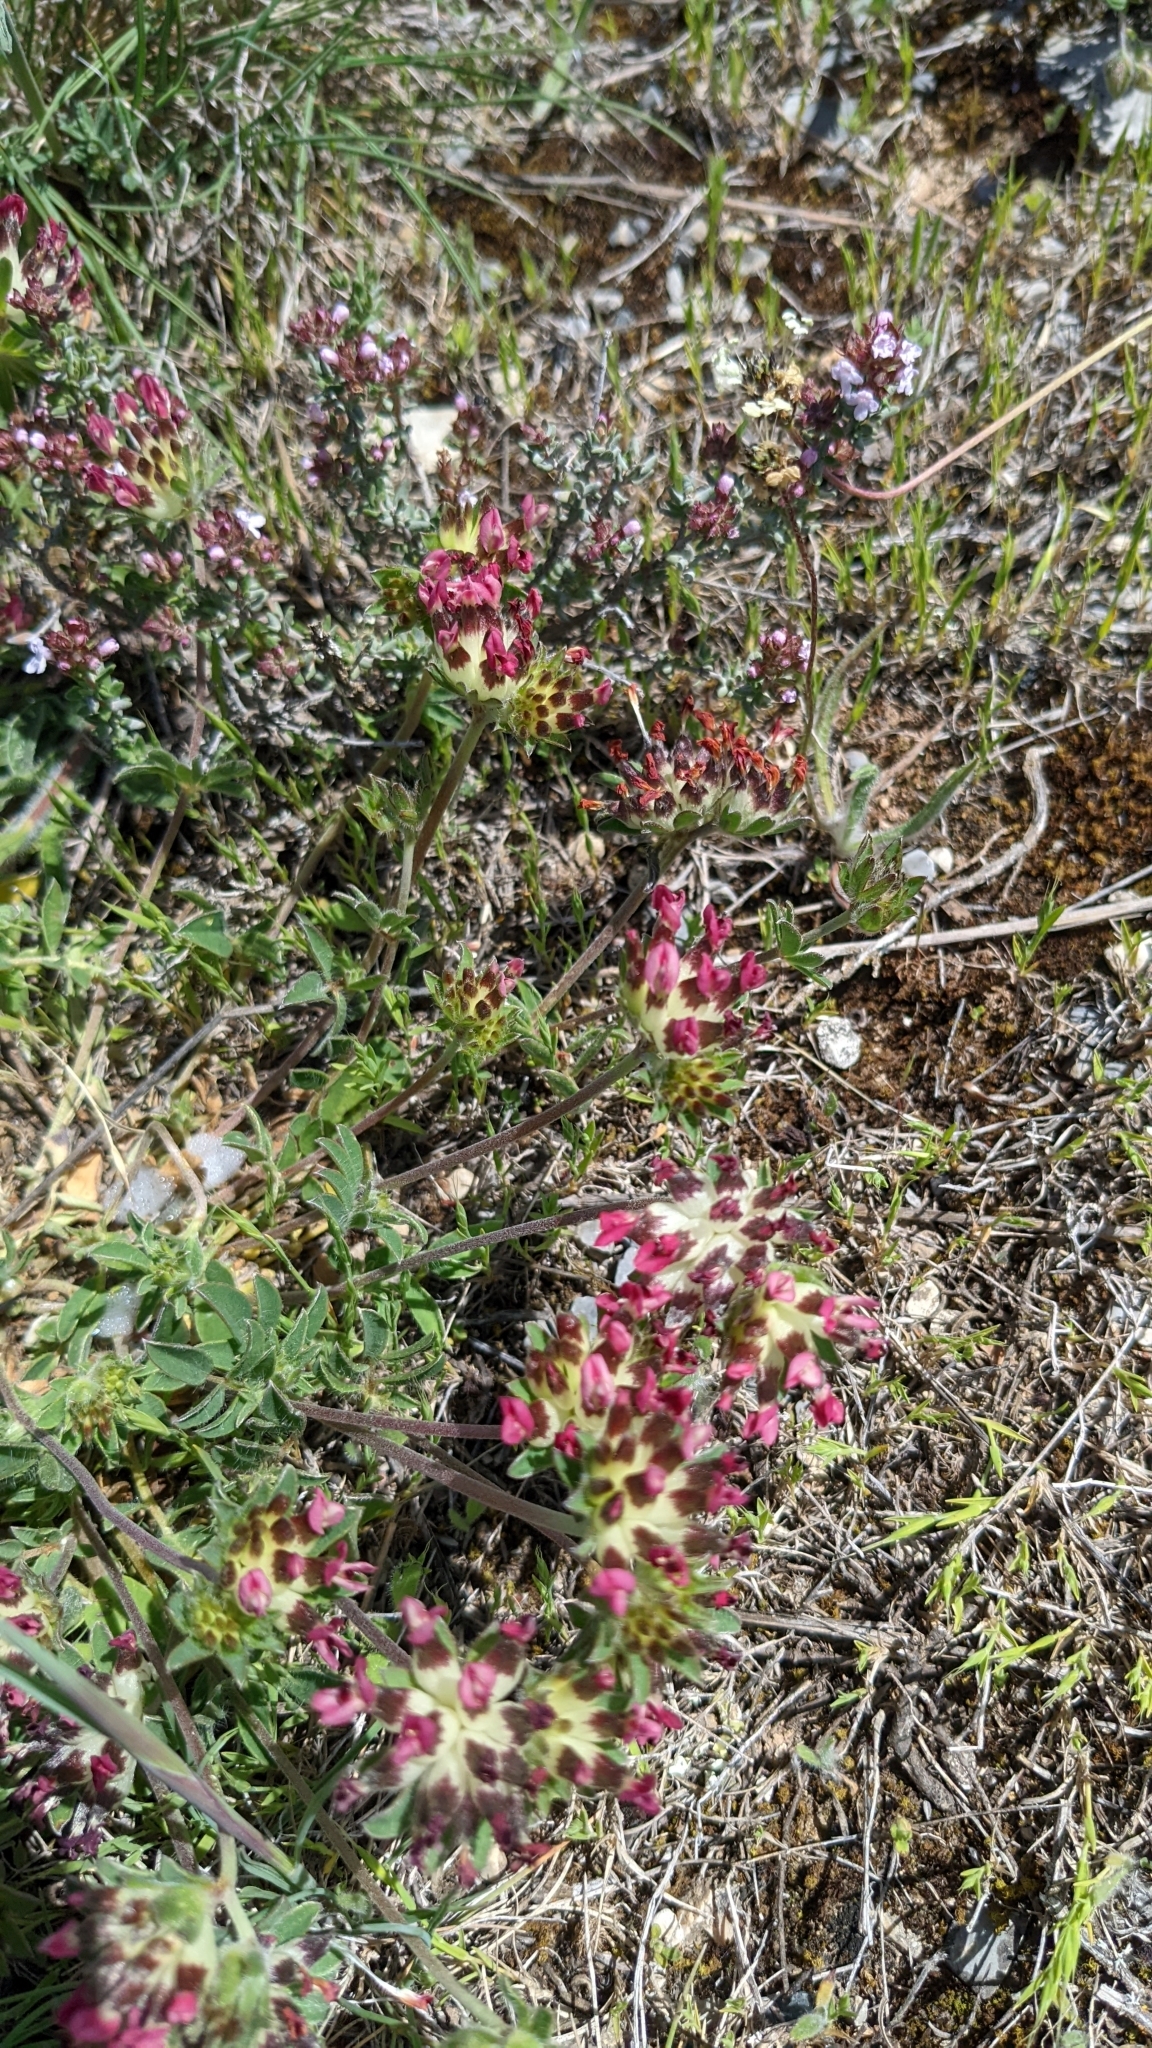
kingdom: Plantae
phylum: Tracheophyta
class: Magnoliopsida
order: Fabales
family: Fabaceae
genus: Anthyllis
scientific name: Anthyllis vulneraria
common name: Kidney vetch
